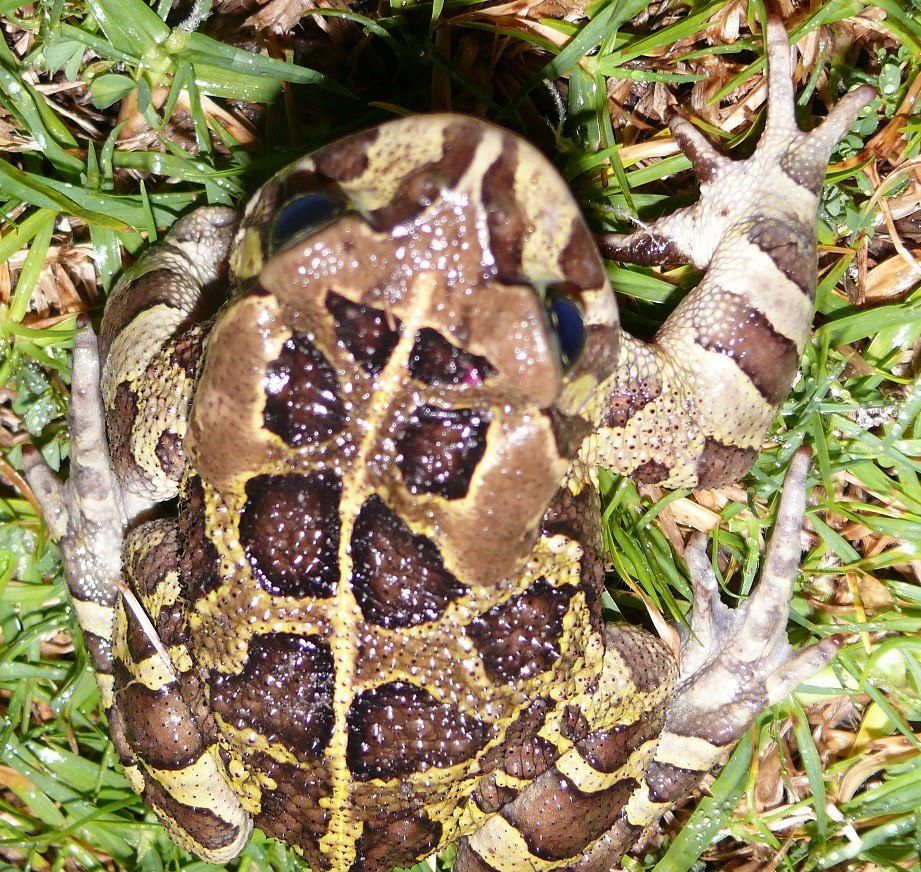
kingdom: Animalia
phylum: Chordata
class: Amphibia
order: Anura
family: Bufonidae
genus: Sclerophrys
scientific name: Sclerophrys pantherina
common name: Panther toad
